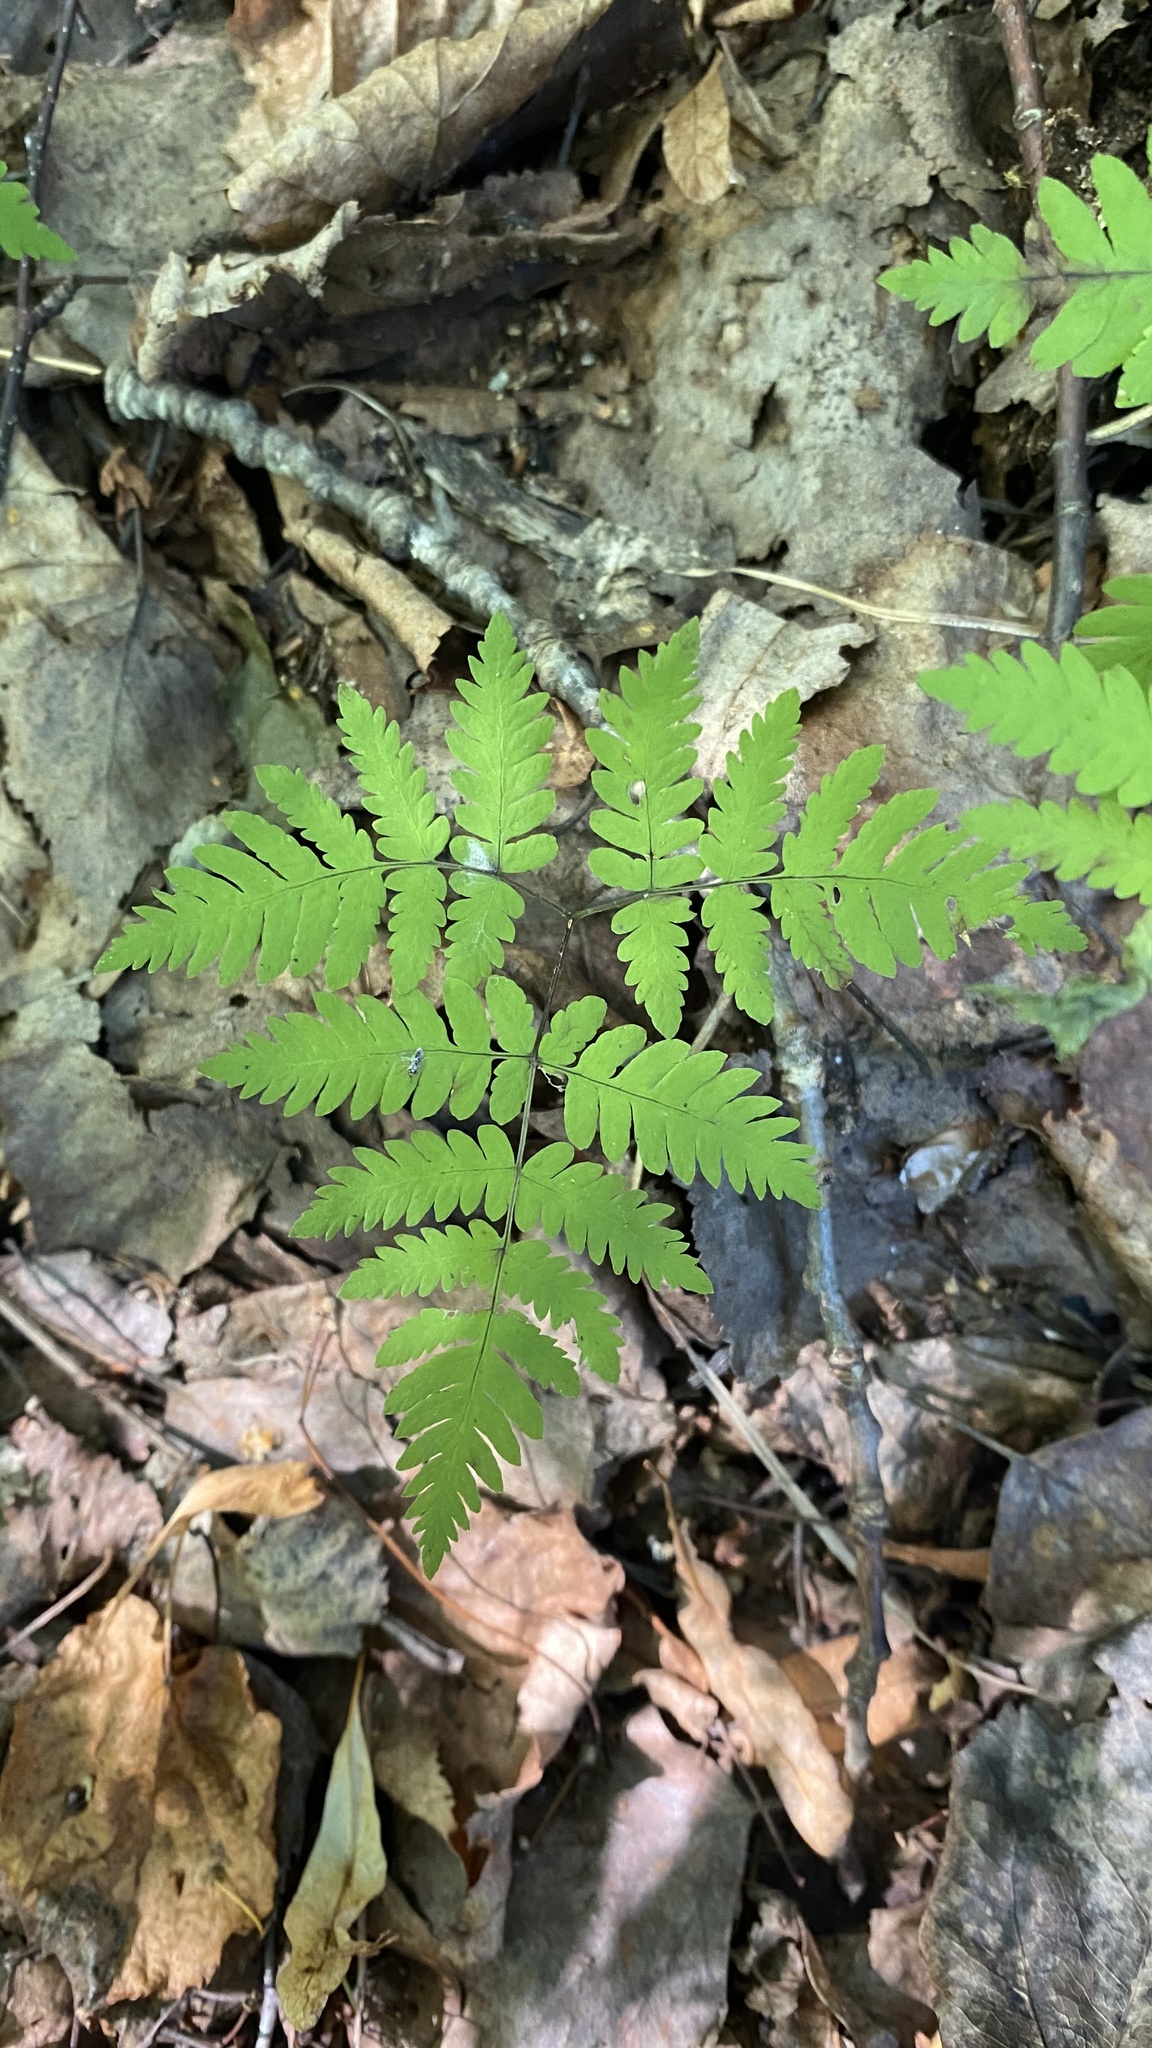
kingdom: Plantae
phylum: Tracheophyta
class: Polypodiopsida
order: Polypodiales
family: Cystopteridaceae
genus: Gymnocarpium
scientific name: Gymnocarpium dryopteris
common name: Oak fern
